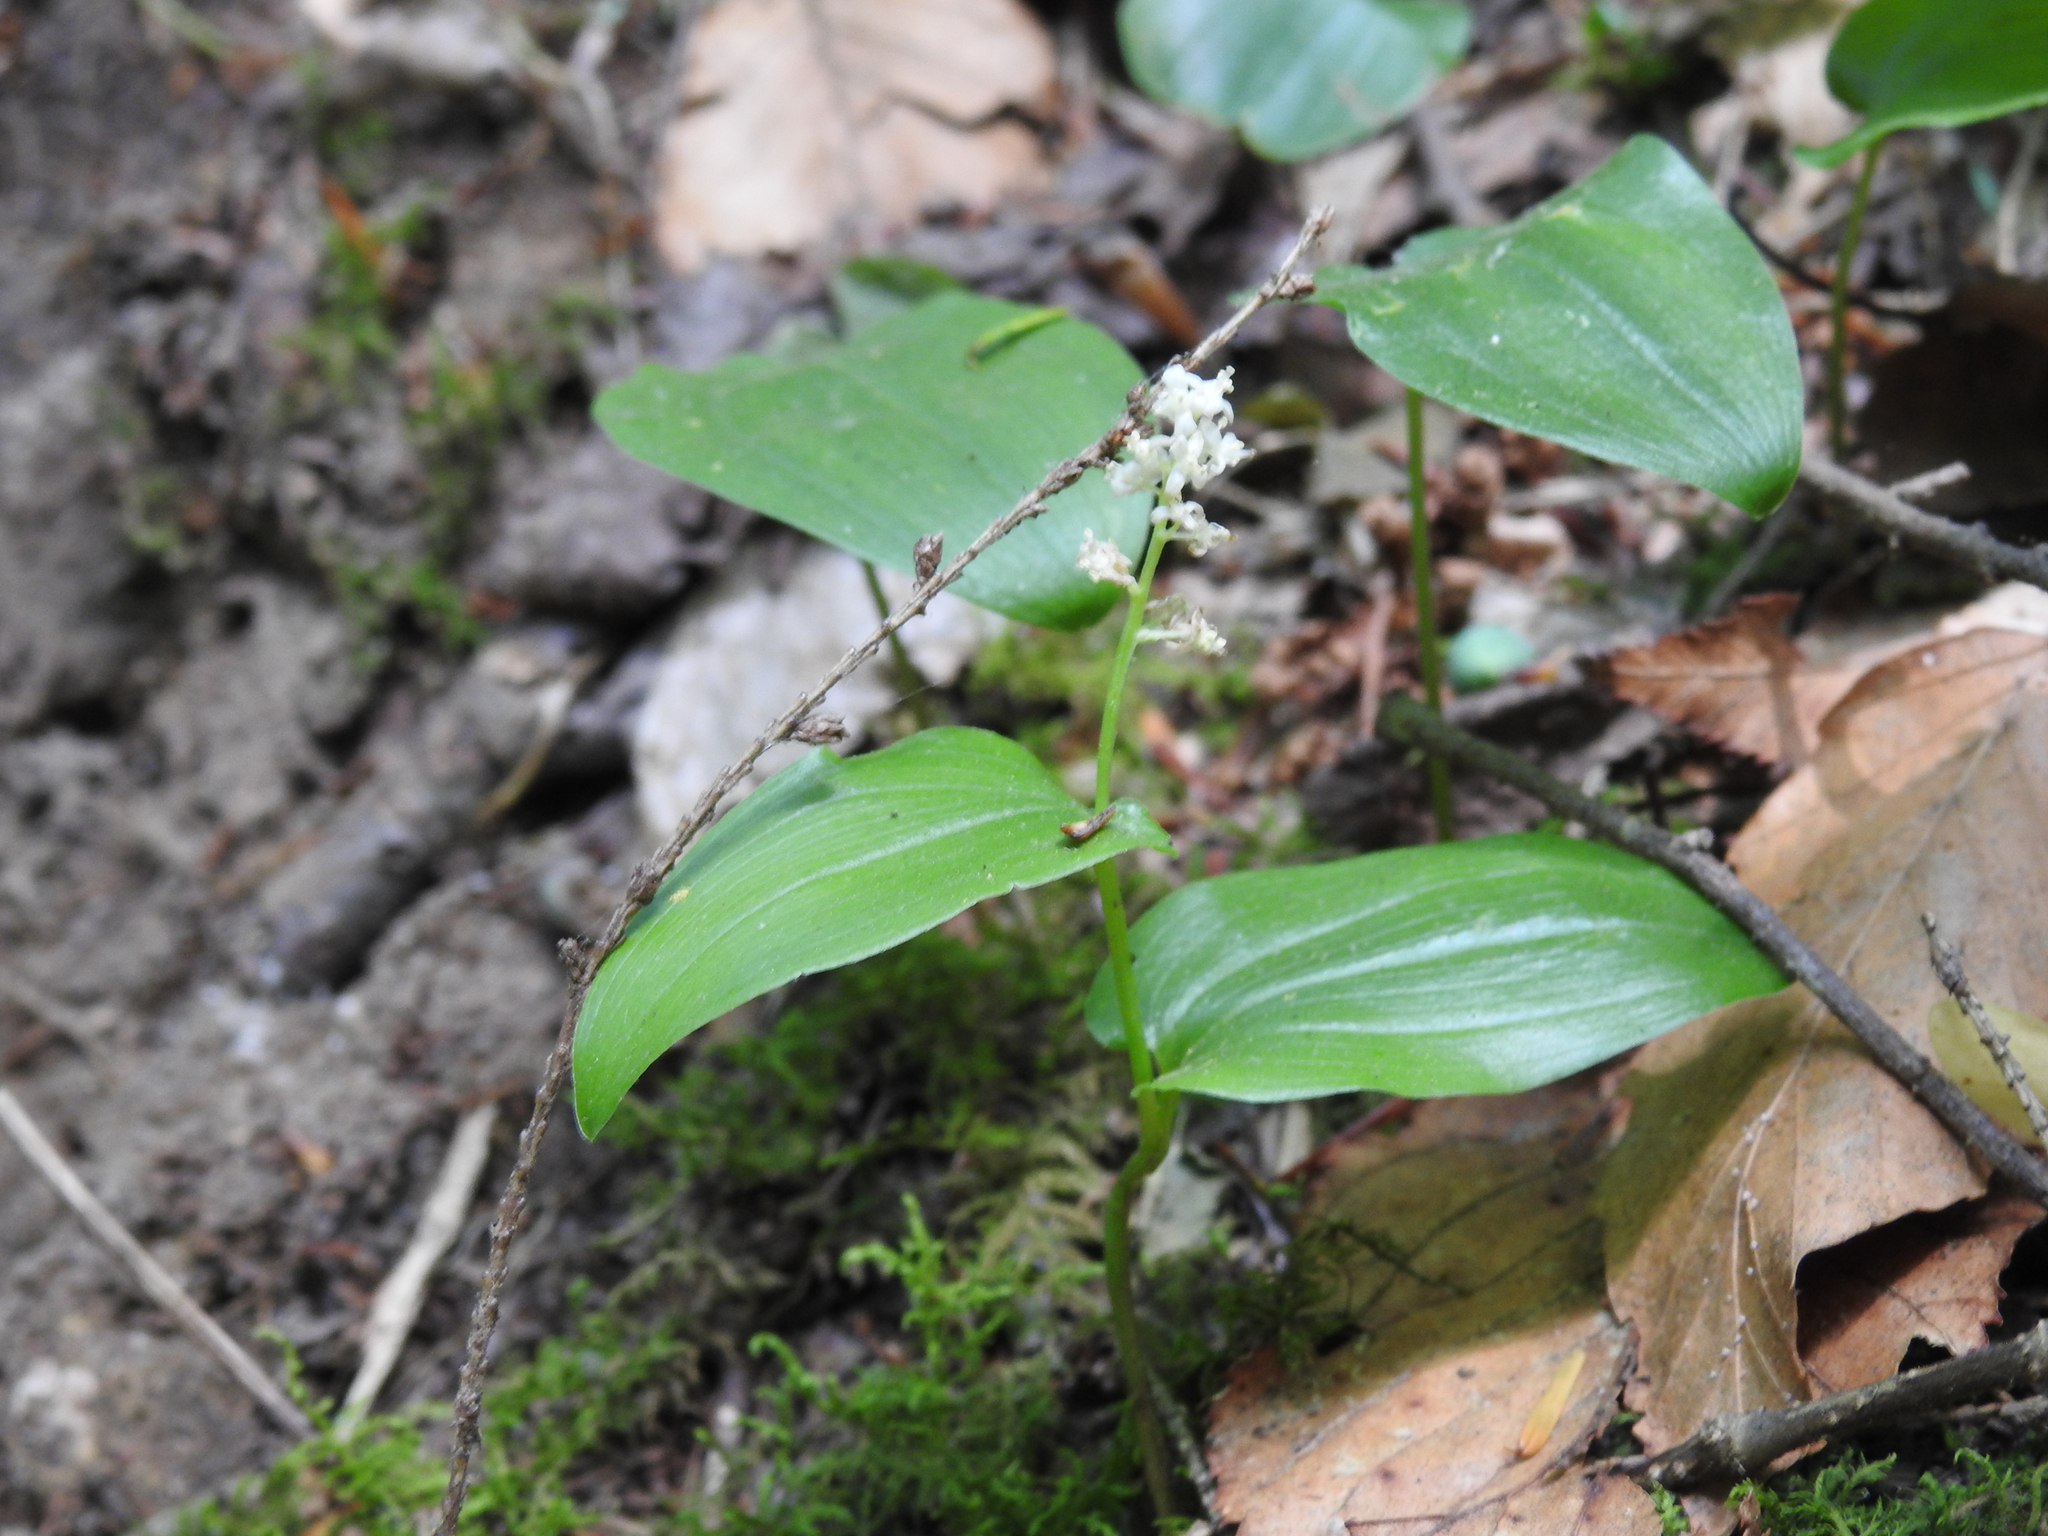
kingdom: Plantae
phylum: Tracheophyta
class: Liliopsida
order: Asparagales
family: Asparagaceae
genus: Maianthemum
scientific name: Maianthemum canadense
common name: False lily-of-the-valley
